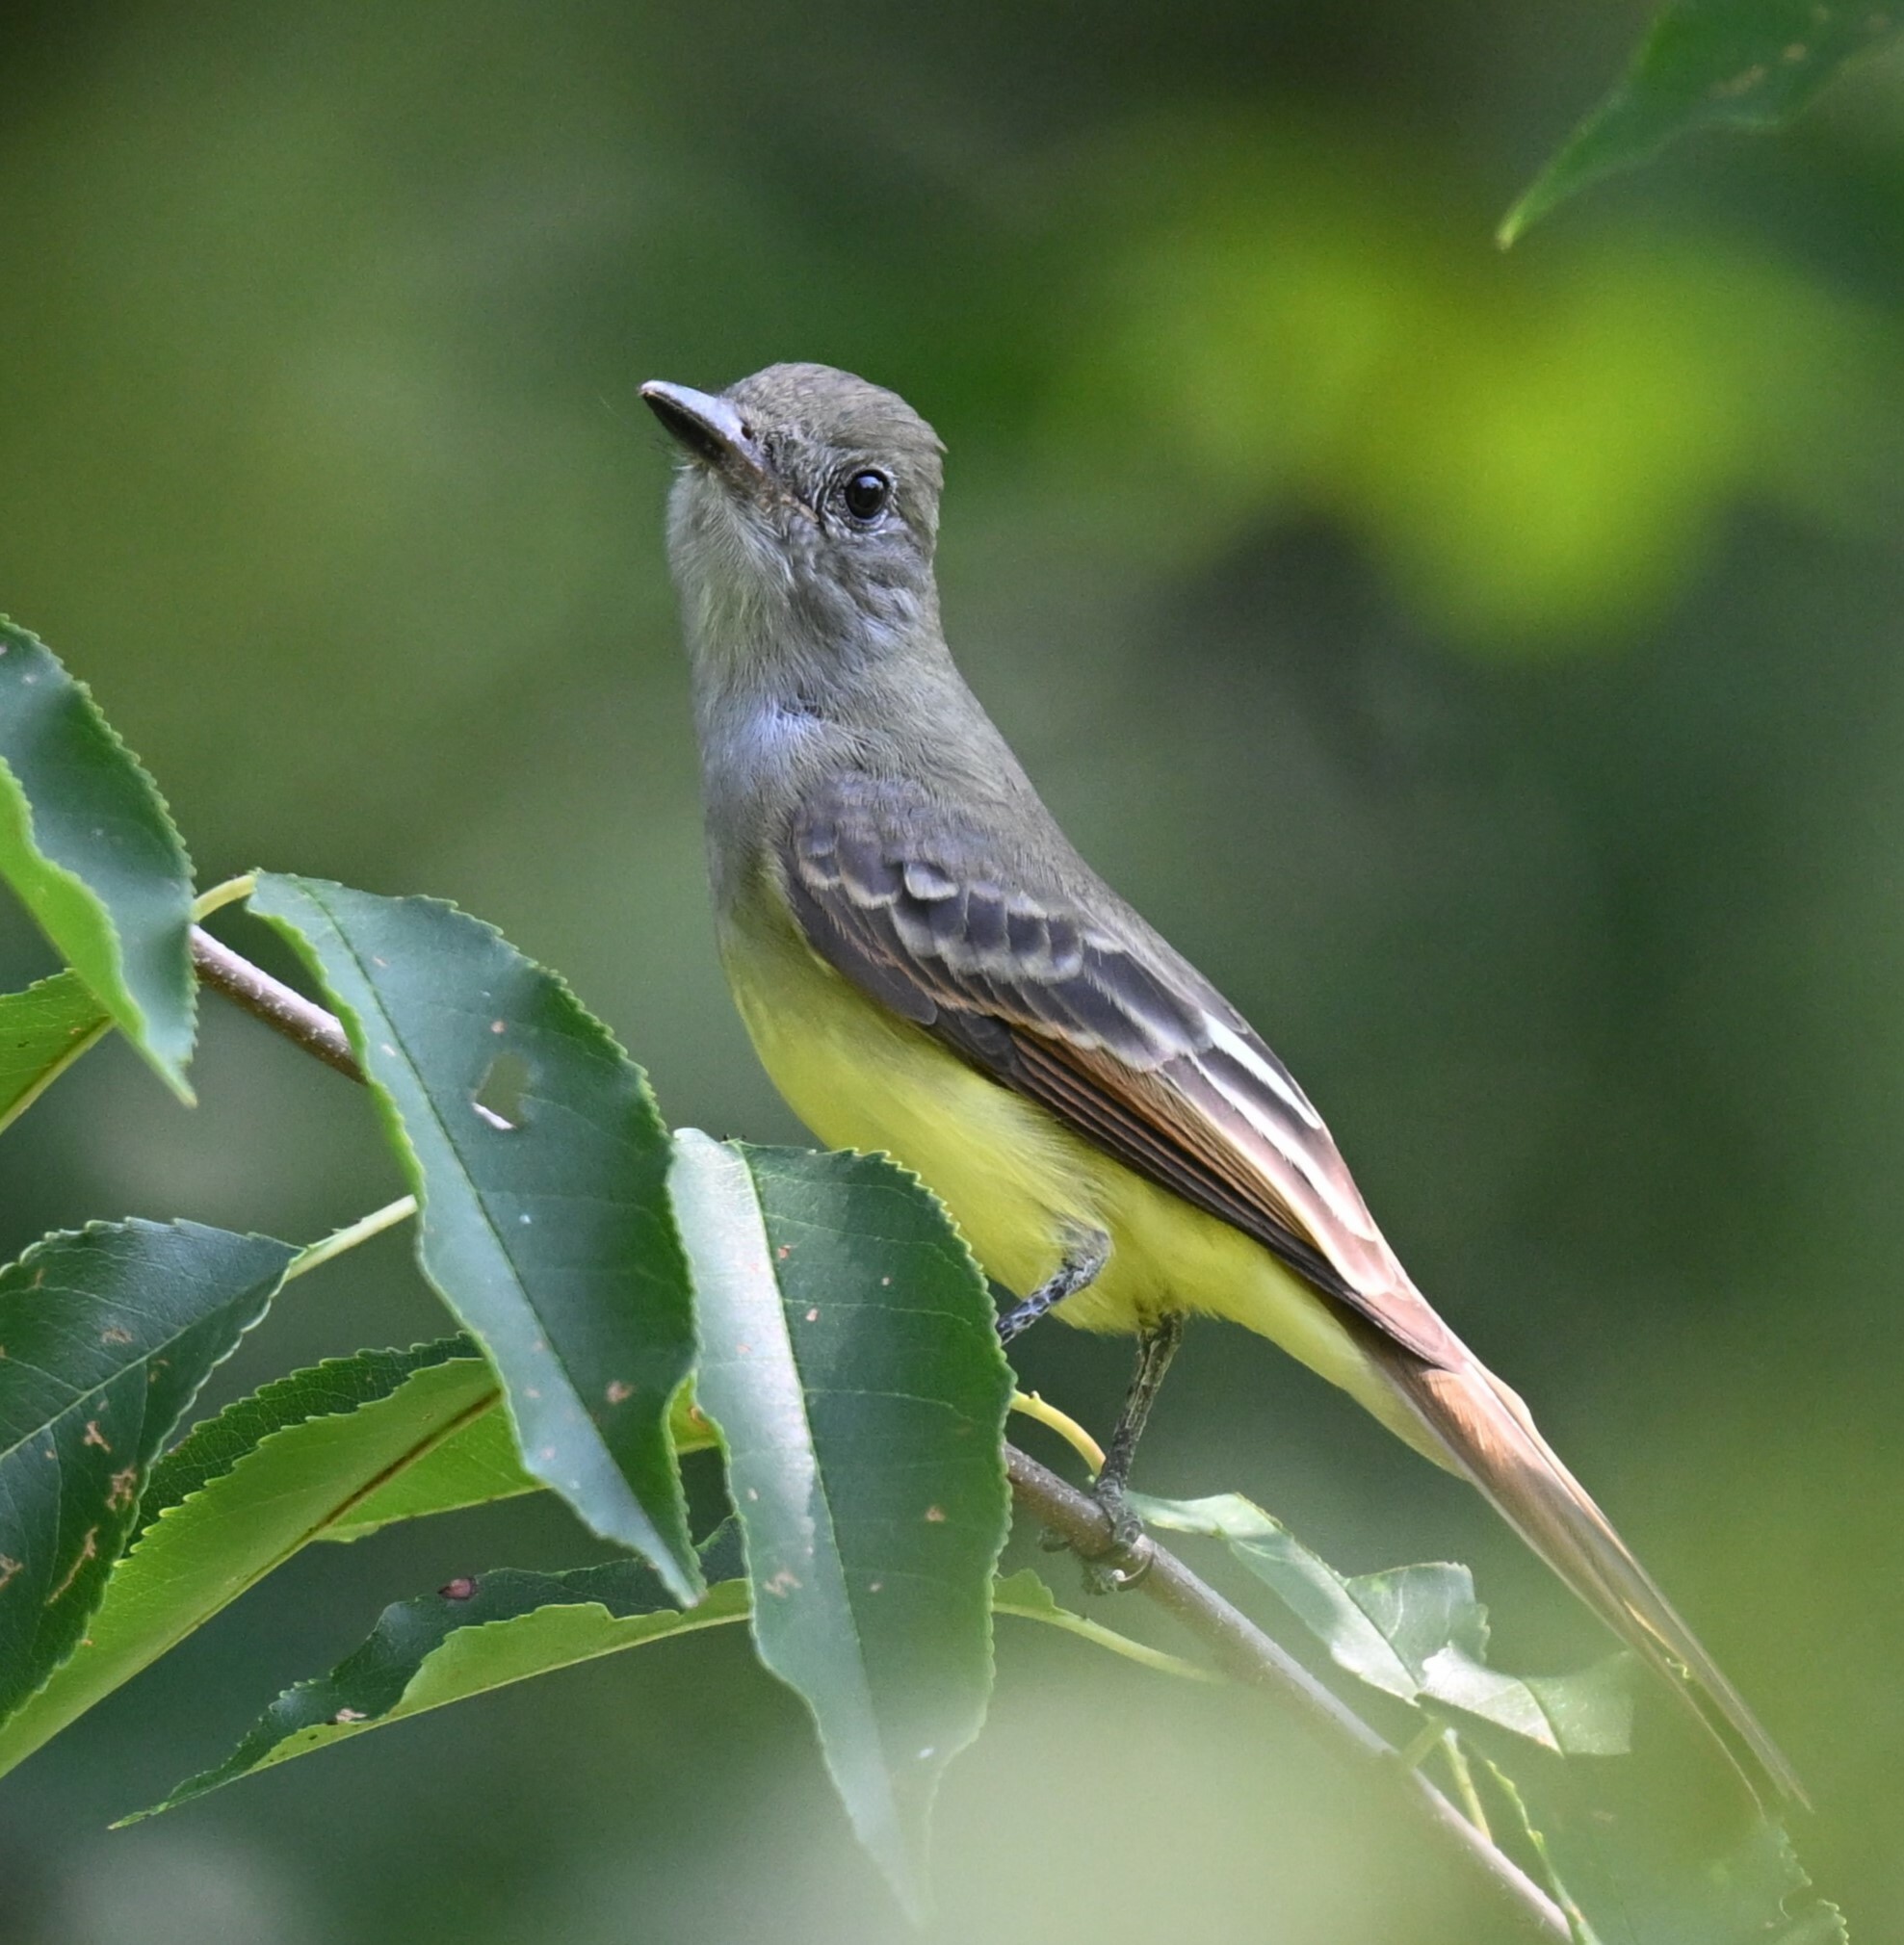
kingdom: Animalia
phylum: Chordata
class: Aves
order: Passeriformes
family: Tyrannidae
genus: Myiarchus
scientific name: Myiarchus crinitus
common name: Great crested flycatcher
